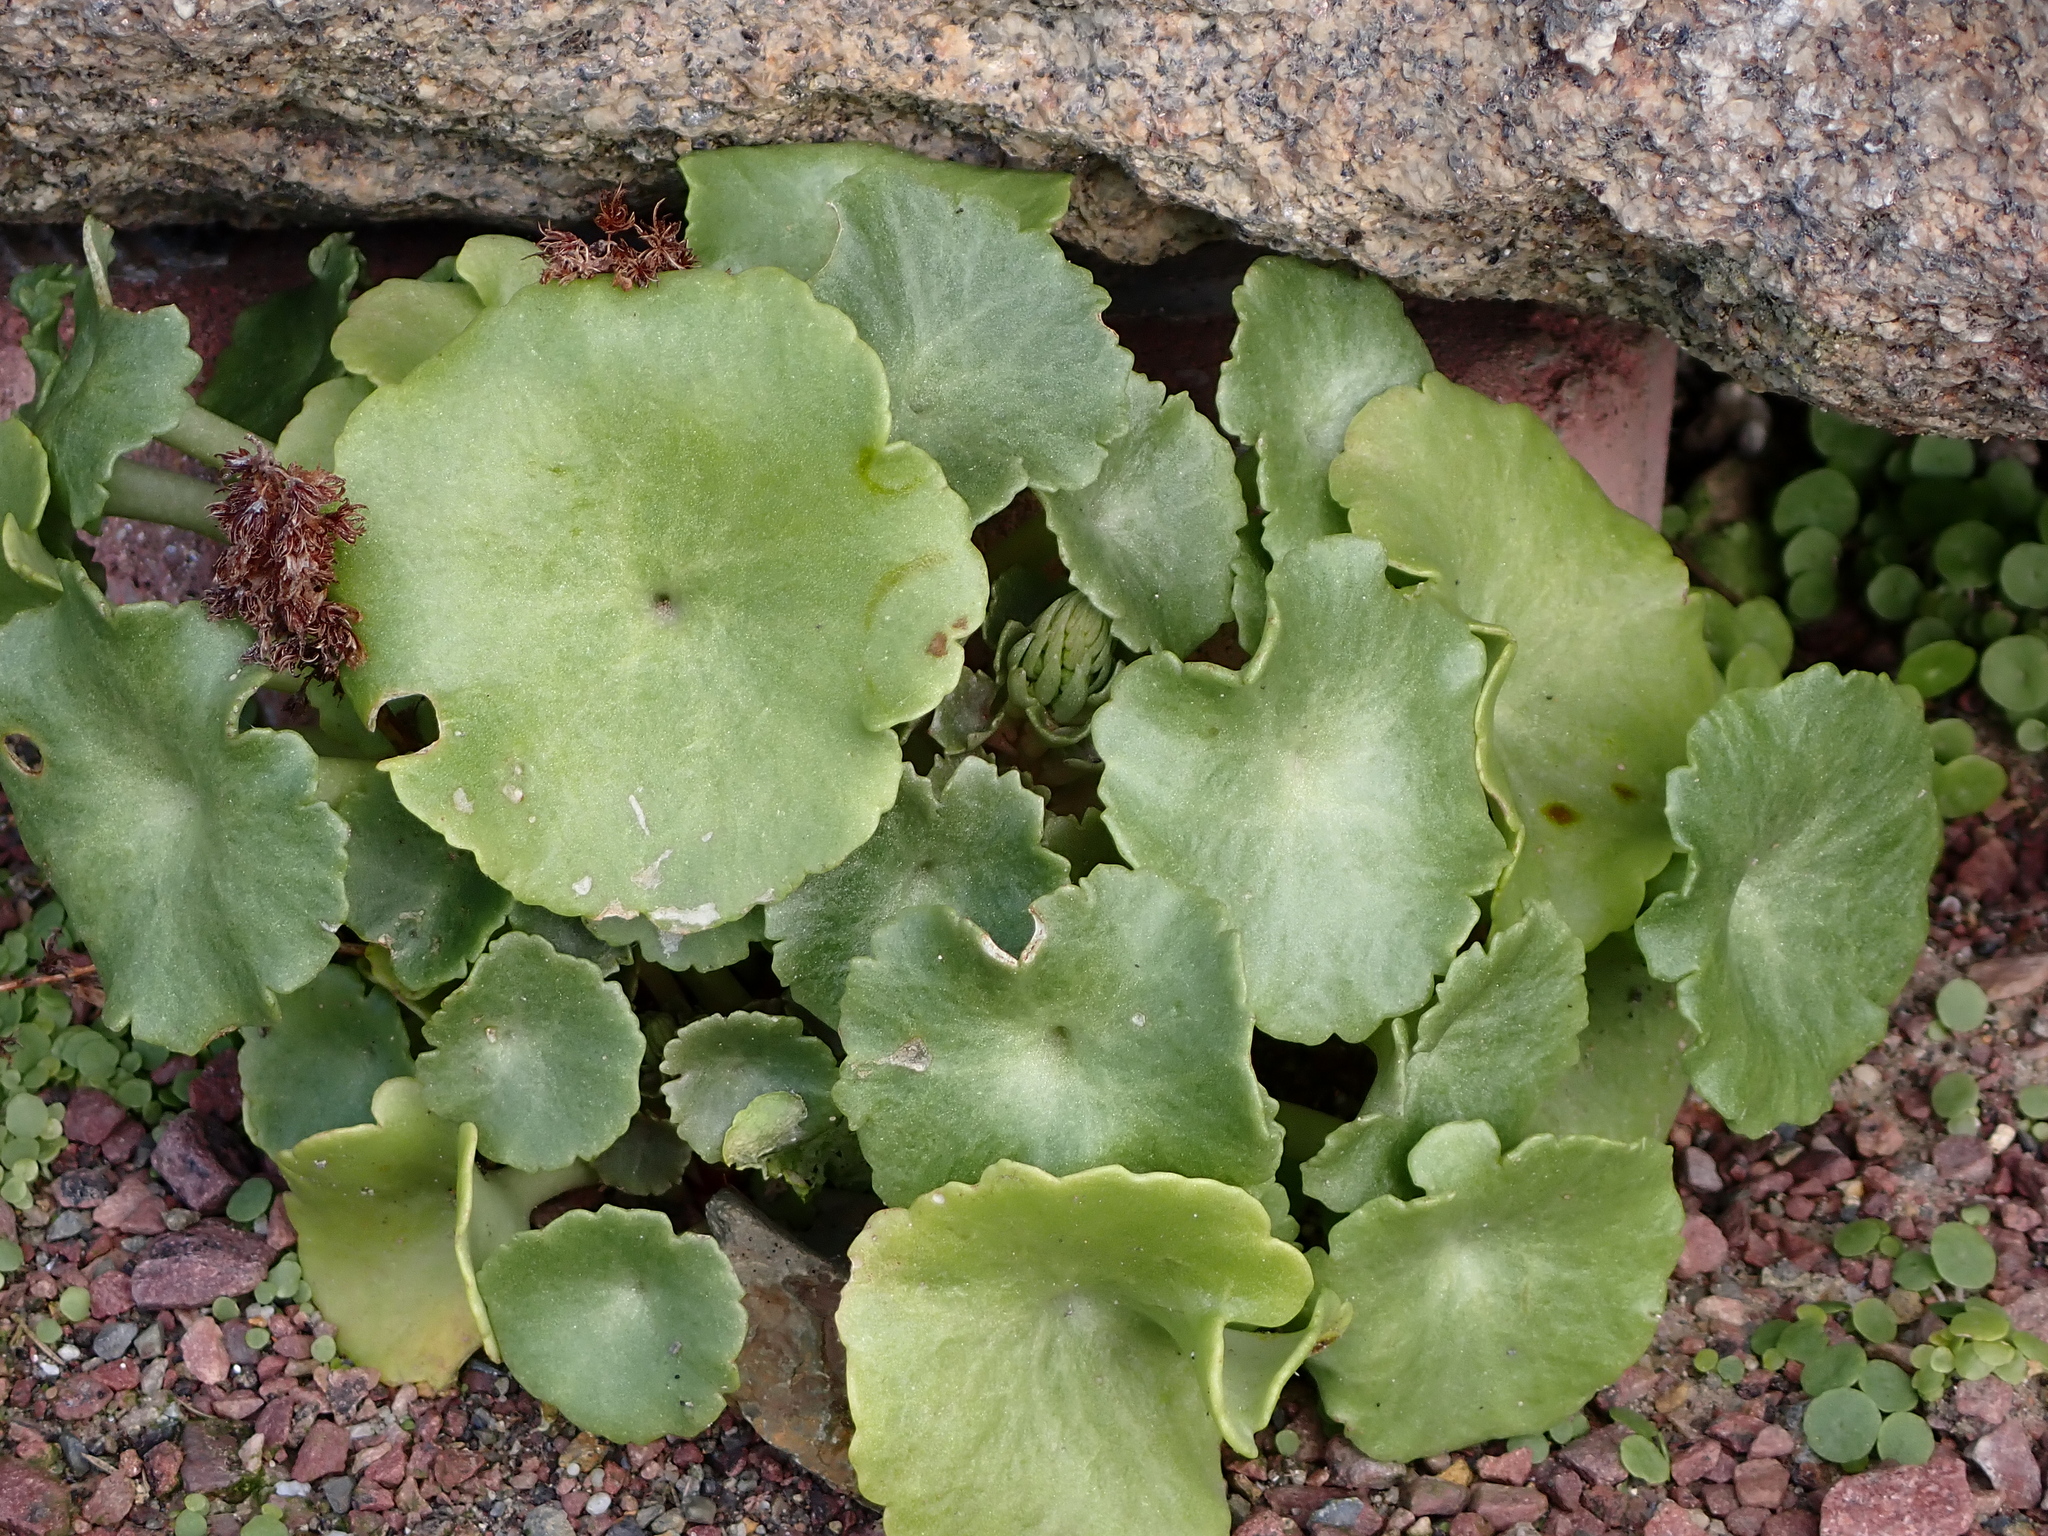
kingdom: Plantae
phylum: Tracheophyta
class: Magnoliopsida
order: Saxifragales
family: Crassulaceae
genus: Umbilicus
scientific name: Umbilicus rupestris
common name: Navelwort
